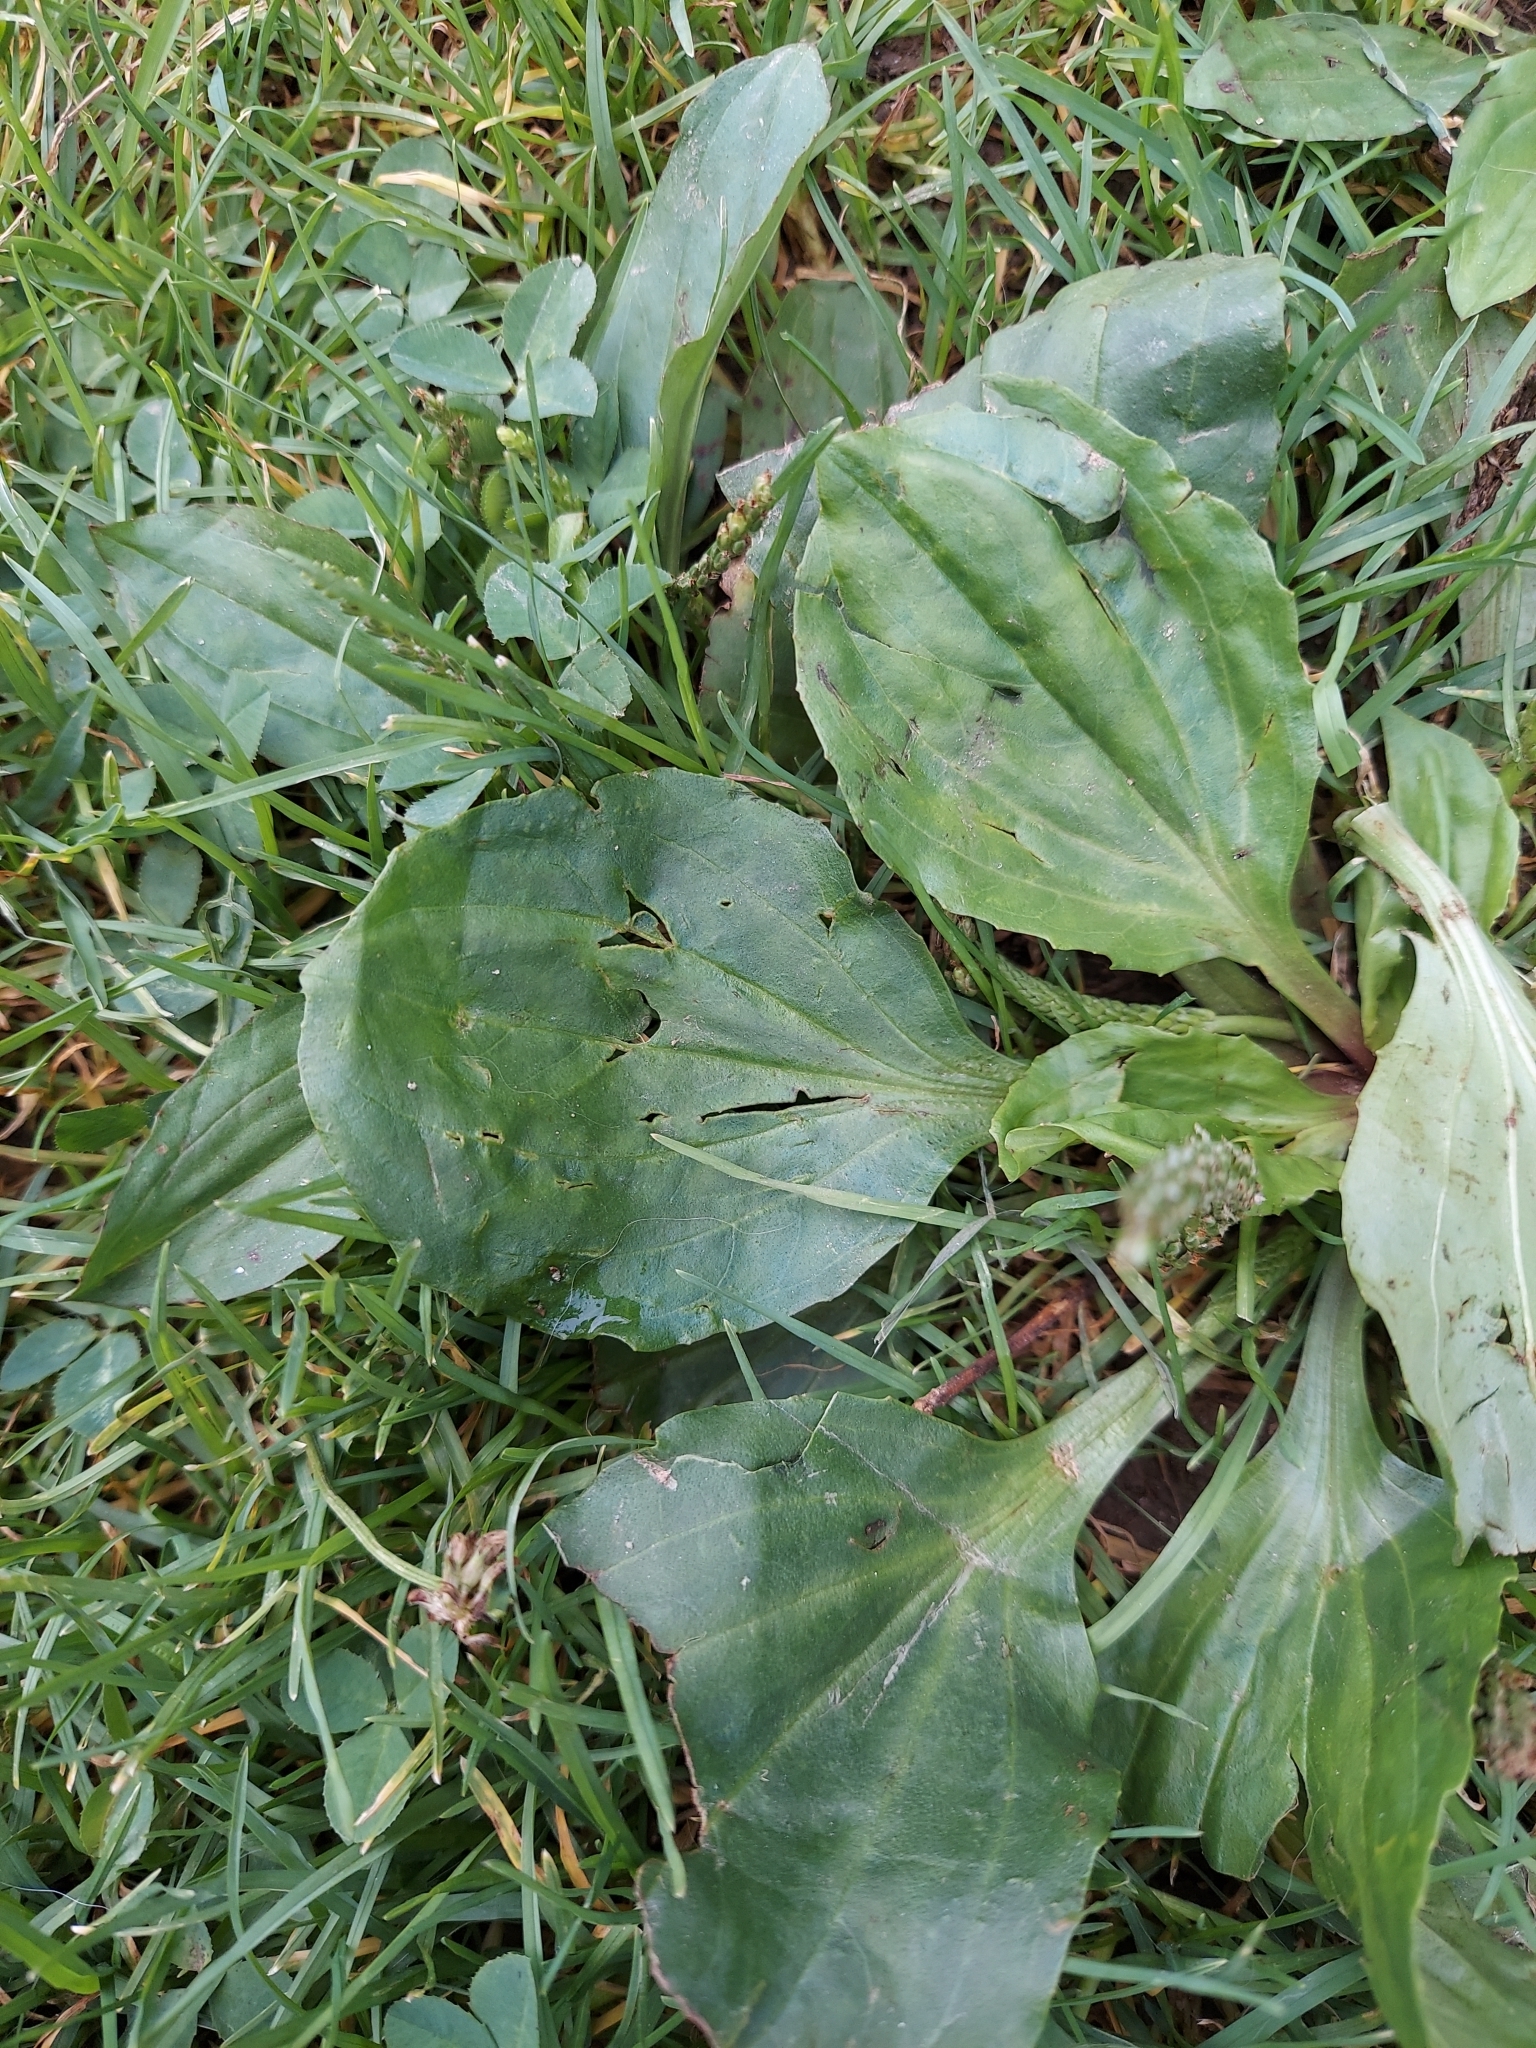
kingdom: Plantae
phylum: Tracheophyta
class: Magnoliopsida
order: Lamiales
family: Plantaginaceae
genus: Plantago
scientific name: Plantago rugelii
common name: American plantain
